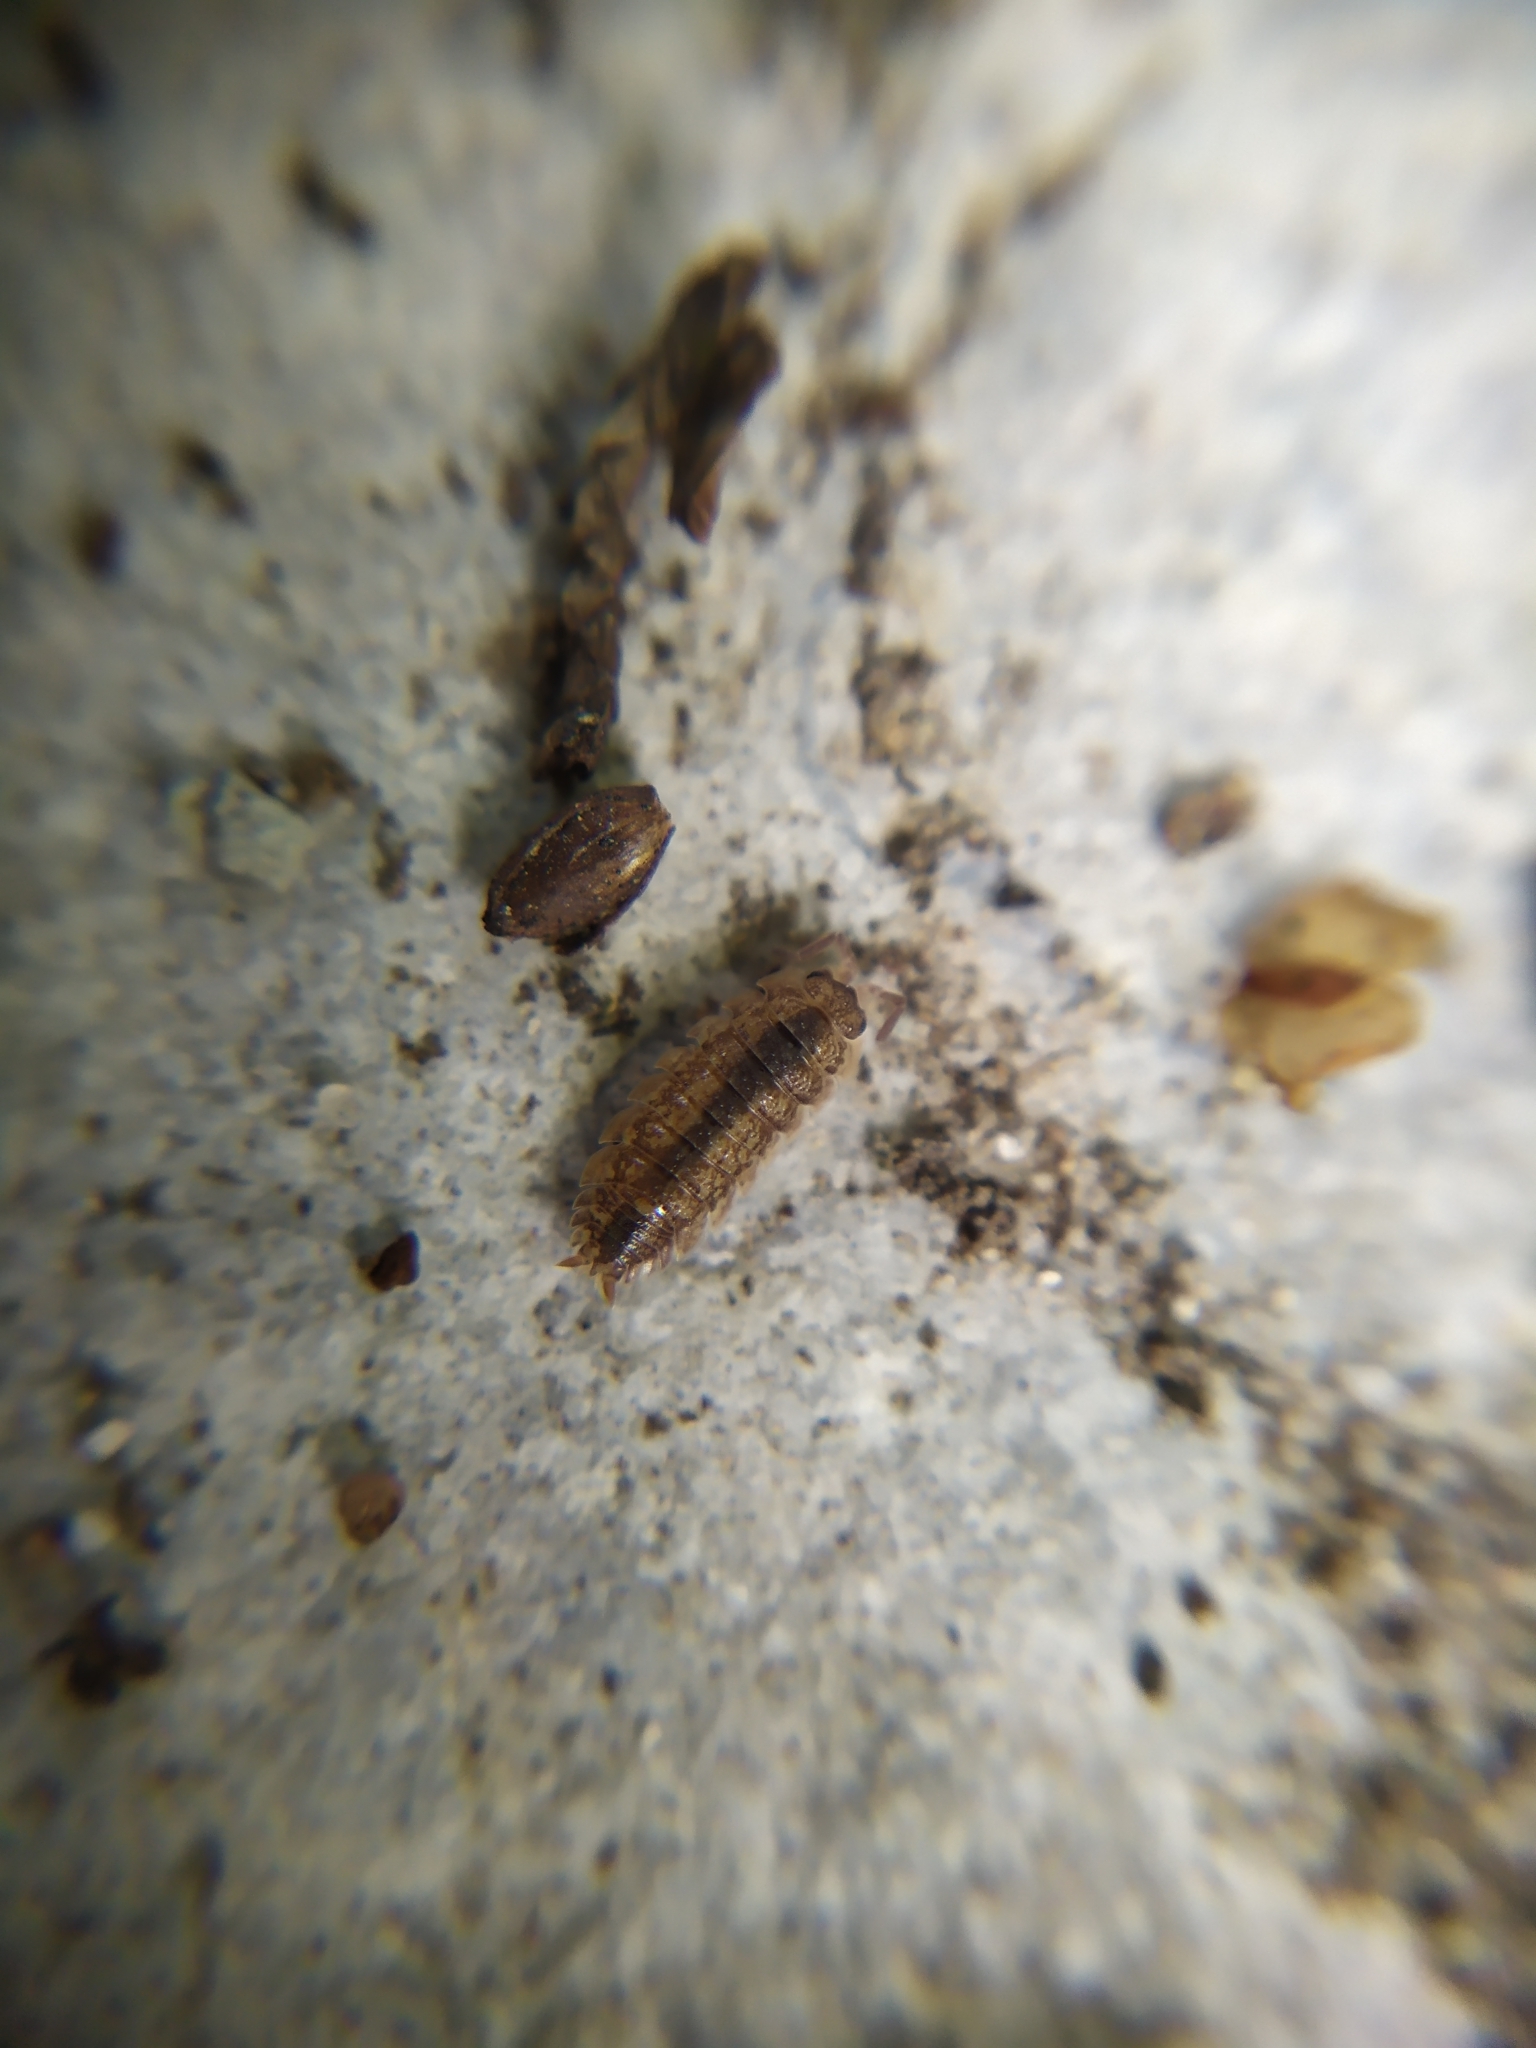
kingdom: Animalia
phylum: Arthropoda
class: Malacostraca
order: Isopoda
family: Porcellionidae
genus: Porcellio
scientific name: Porcellio scaber
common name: Common rough woodlouse
